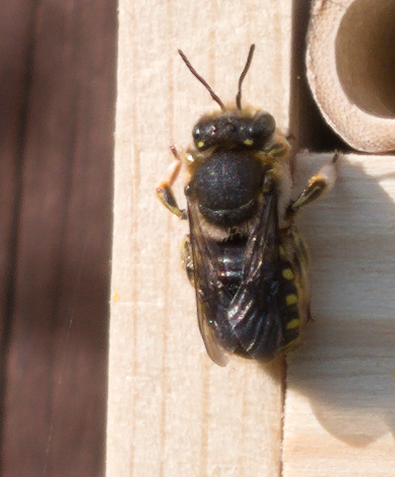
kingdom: Animalia
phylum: Arthropoda
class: Insecta
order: Hymenoptera
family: Megachilidae
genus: Anthidium
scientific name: Anthidium manicatum
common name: Wool carder bee
